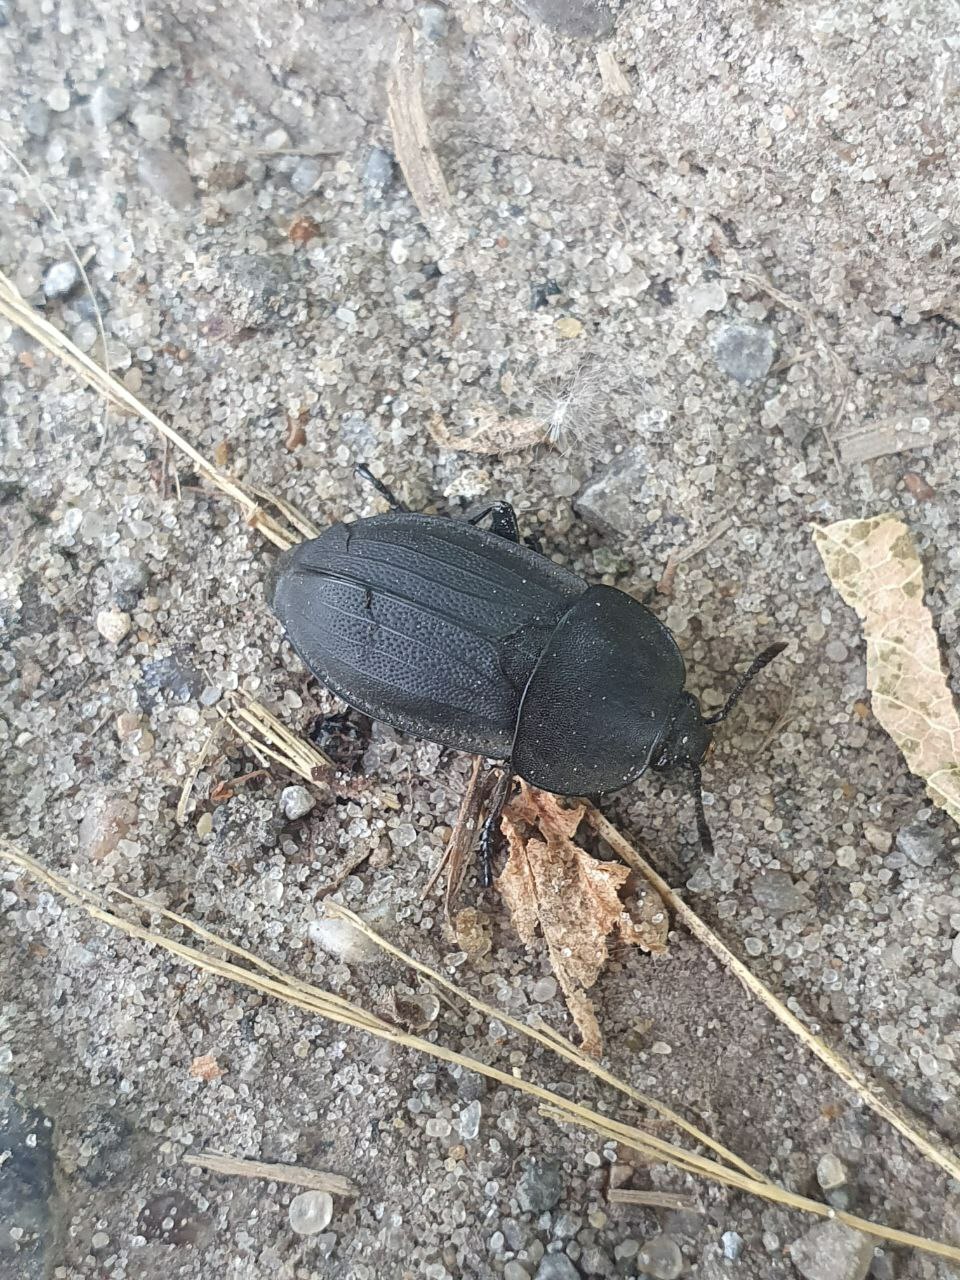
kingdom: Animalia
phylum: Arthropoda
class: Insecta
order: Coleoptera
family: Staphylinidae
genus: Silpha
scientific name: Silpha obscura
